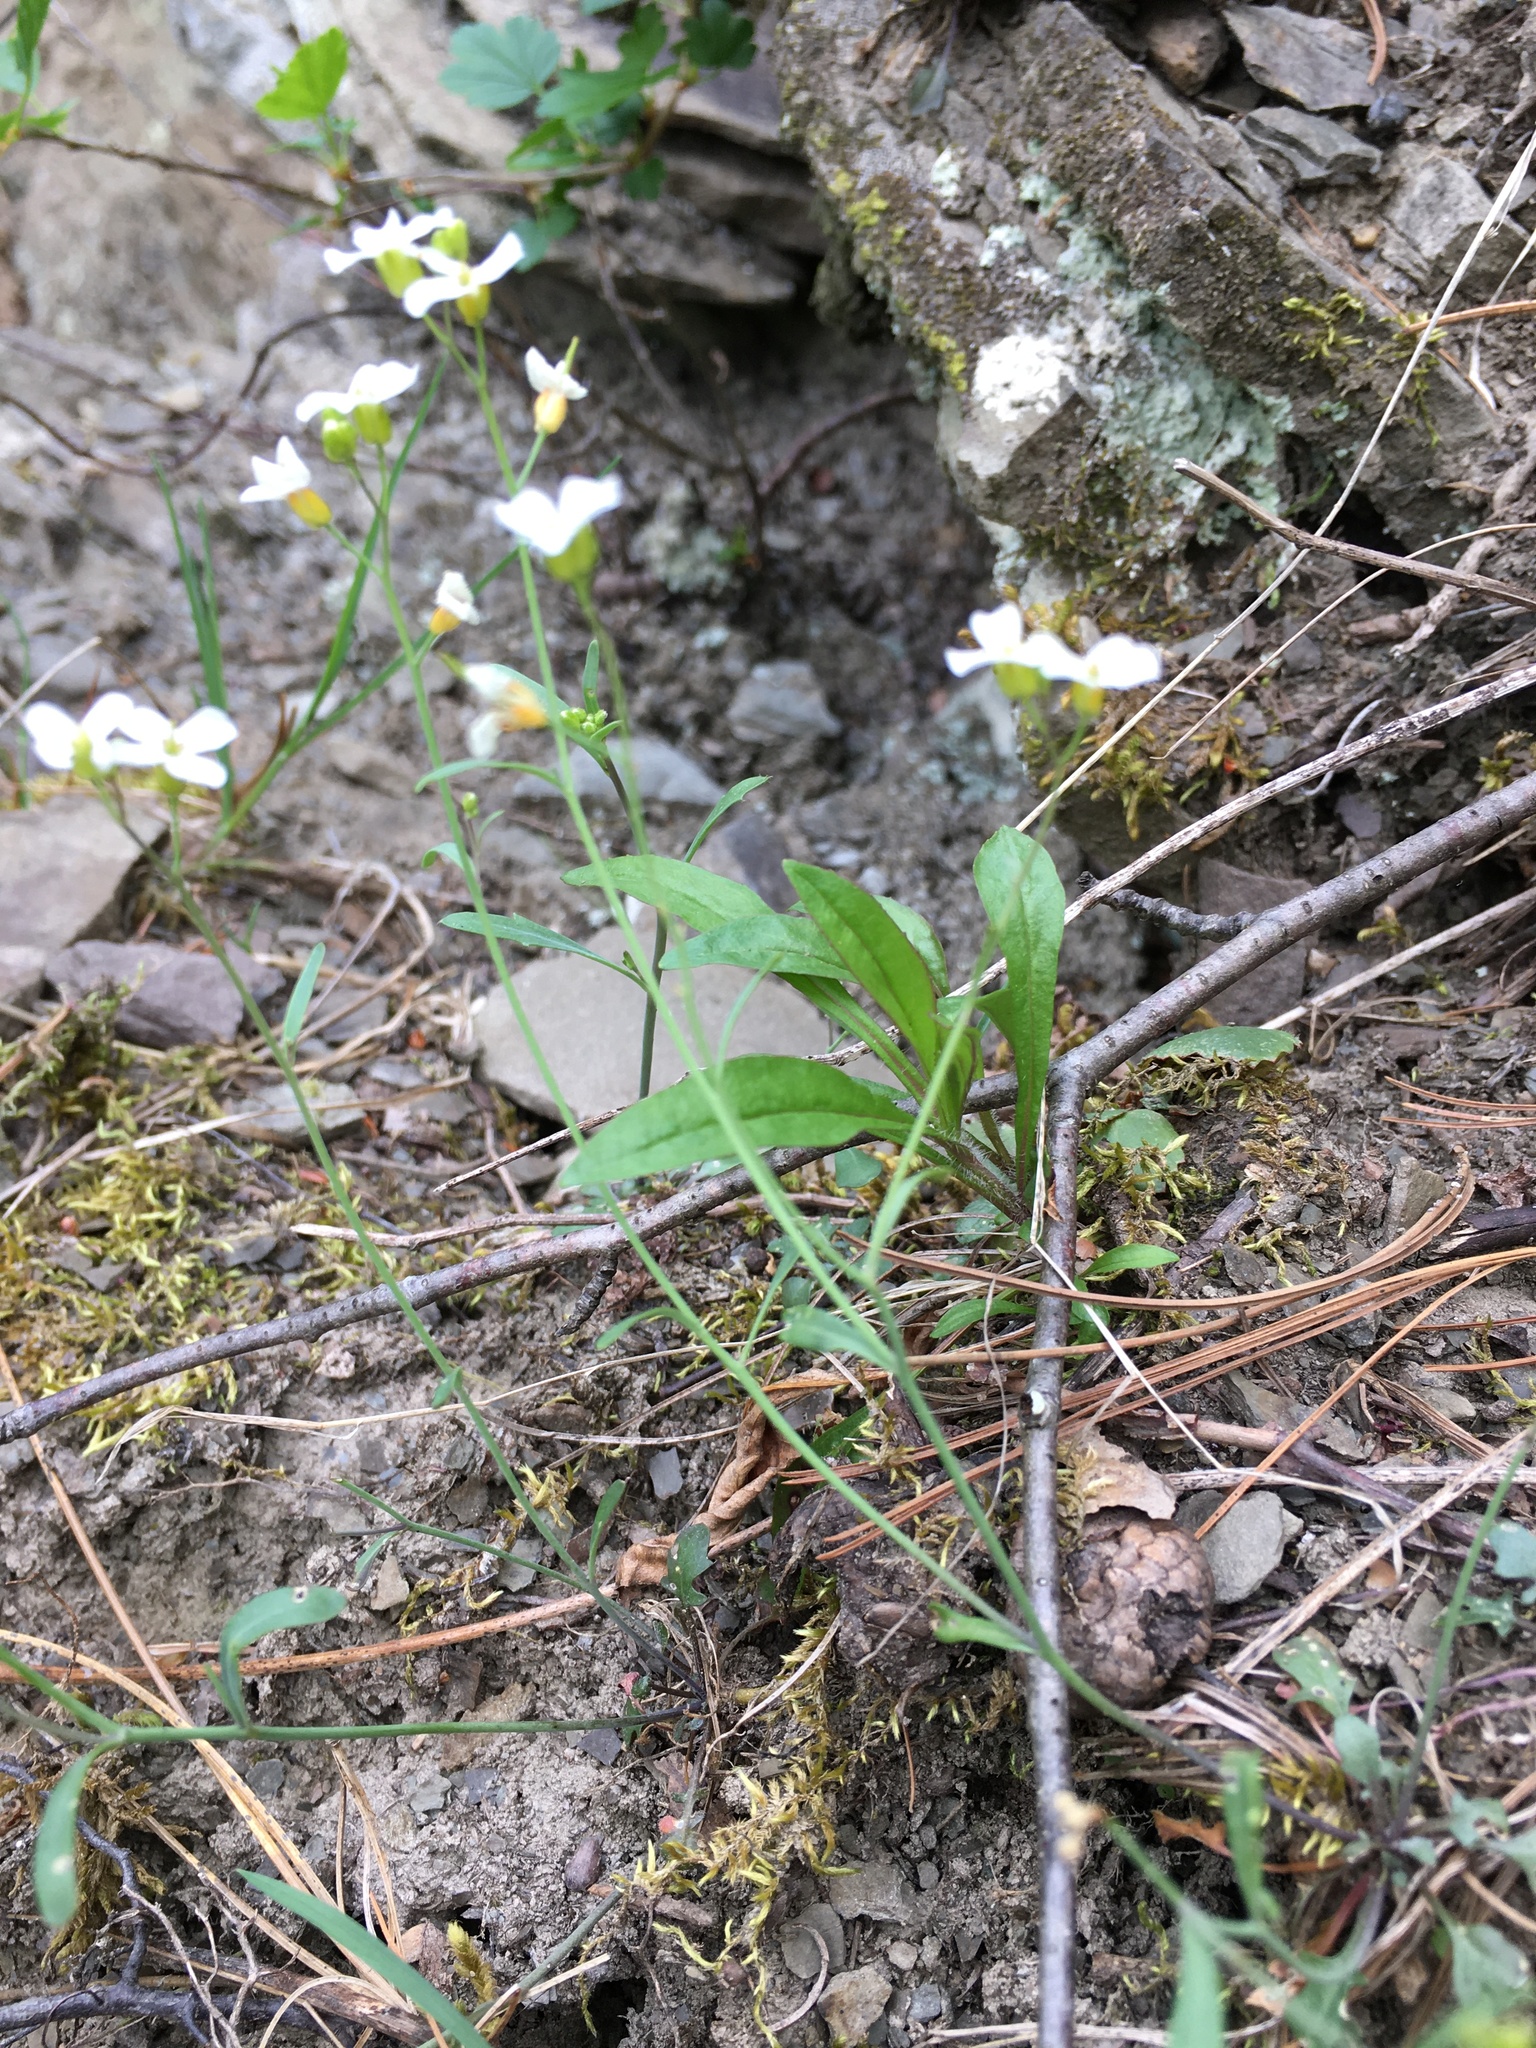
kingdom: Plantae
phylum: Tracheophyta
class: Magnoliopsida
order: Brassicales
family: Brassicaceae
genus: Arabidopsis
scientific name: Arabidopsis lyrata
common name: Lyrate rockcress
